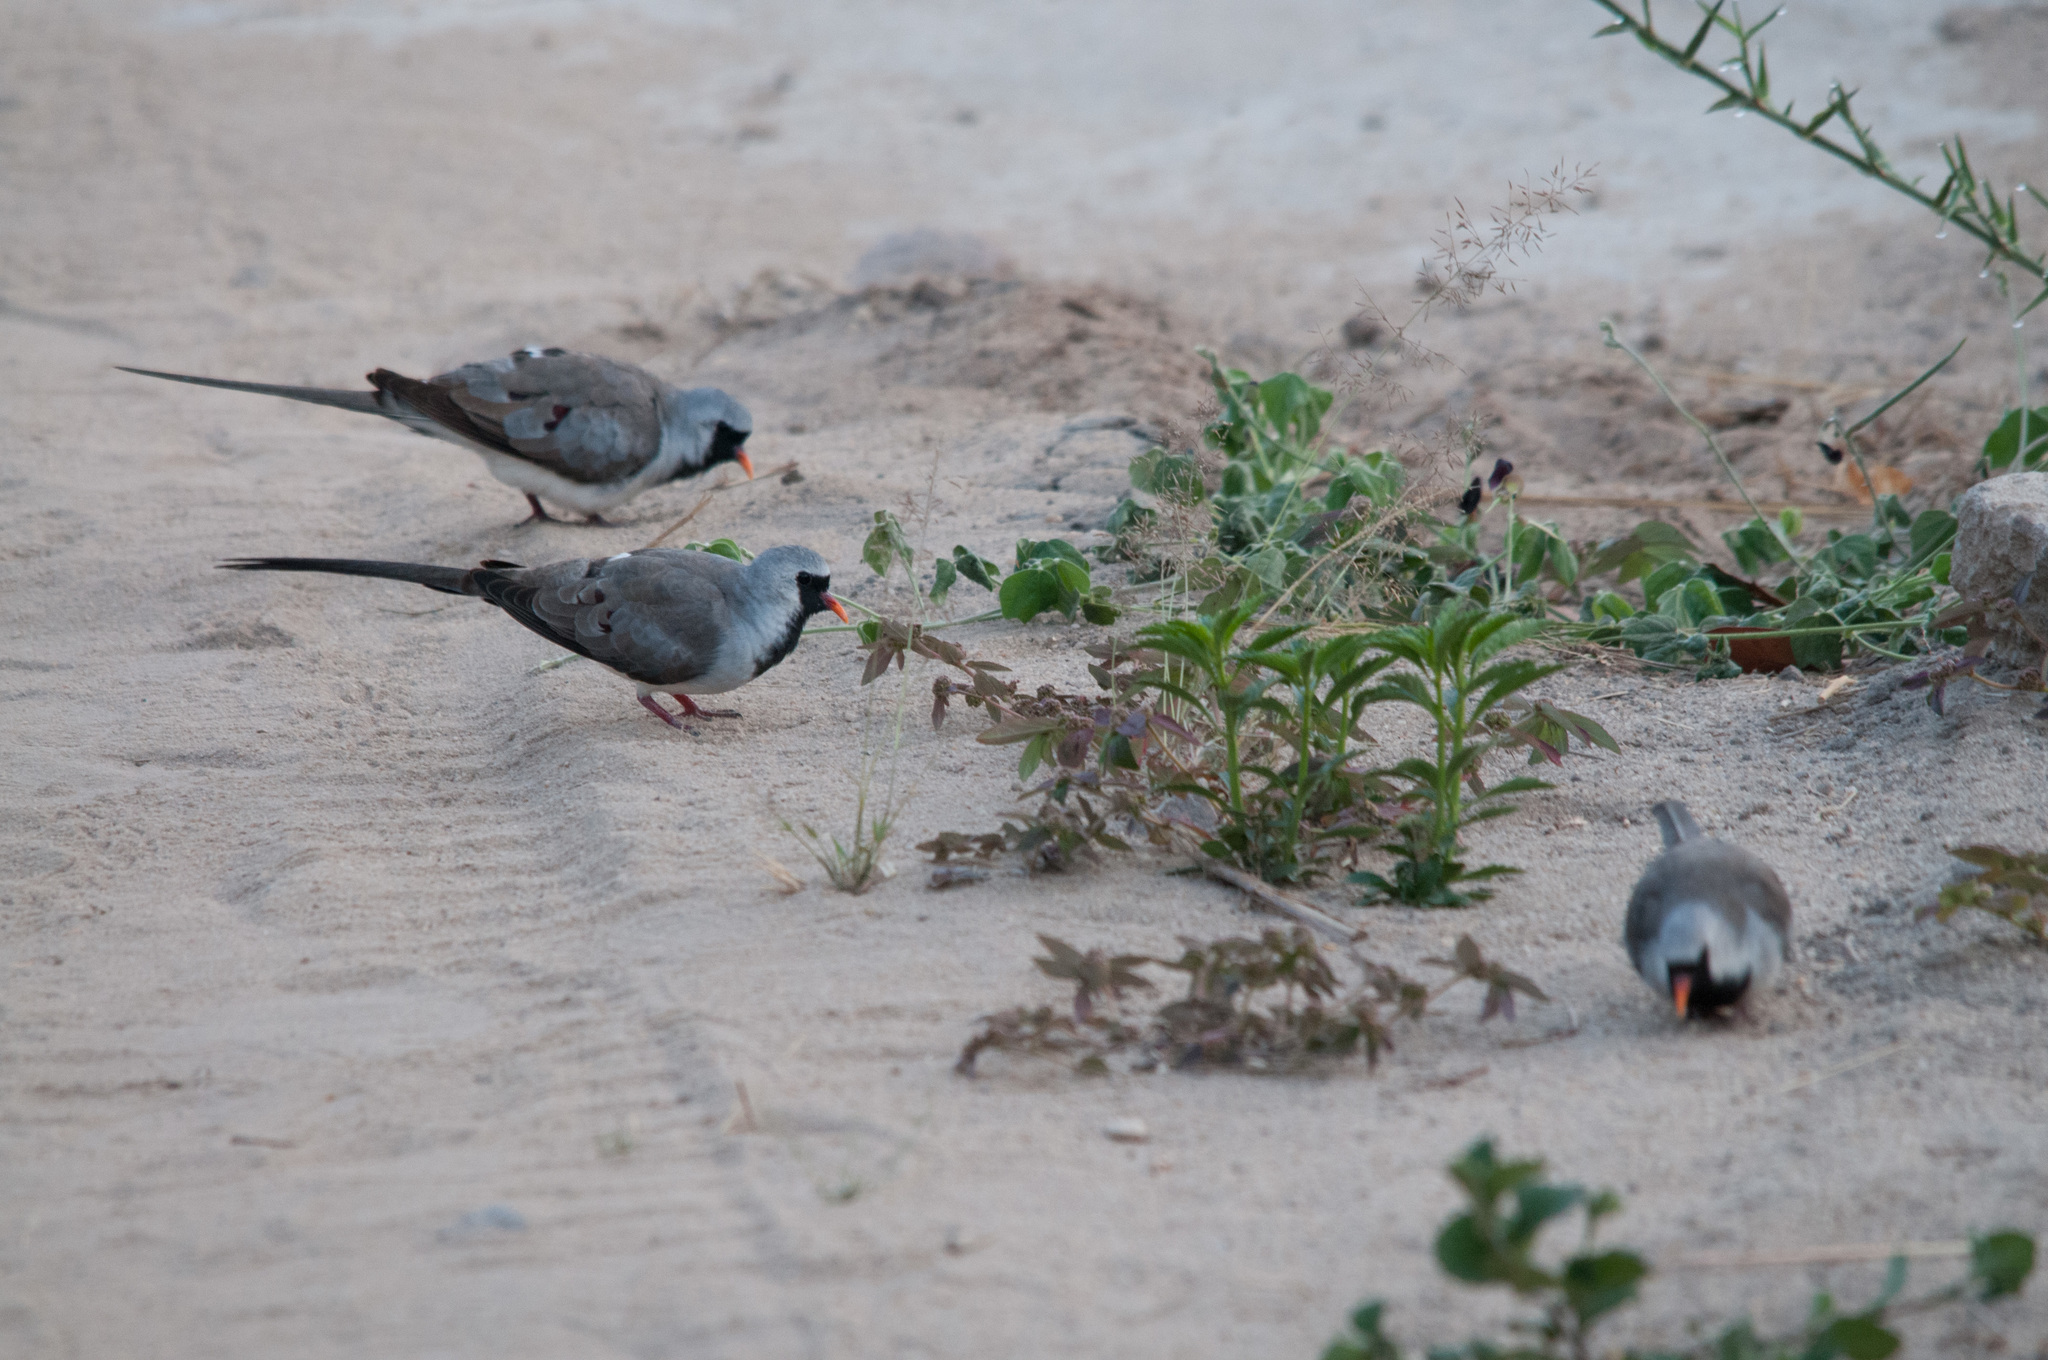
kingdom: Animalia
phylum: Chordata
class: Aves
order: Columbiformes
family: Columbidae
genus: Oena
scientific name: Oena capensis
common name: Namaqua dove
